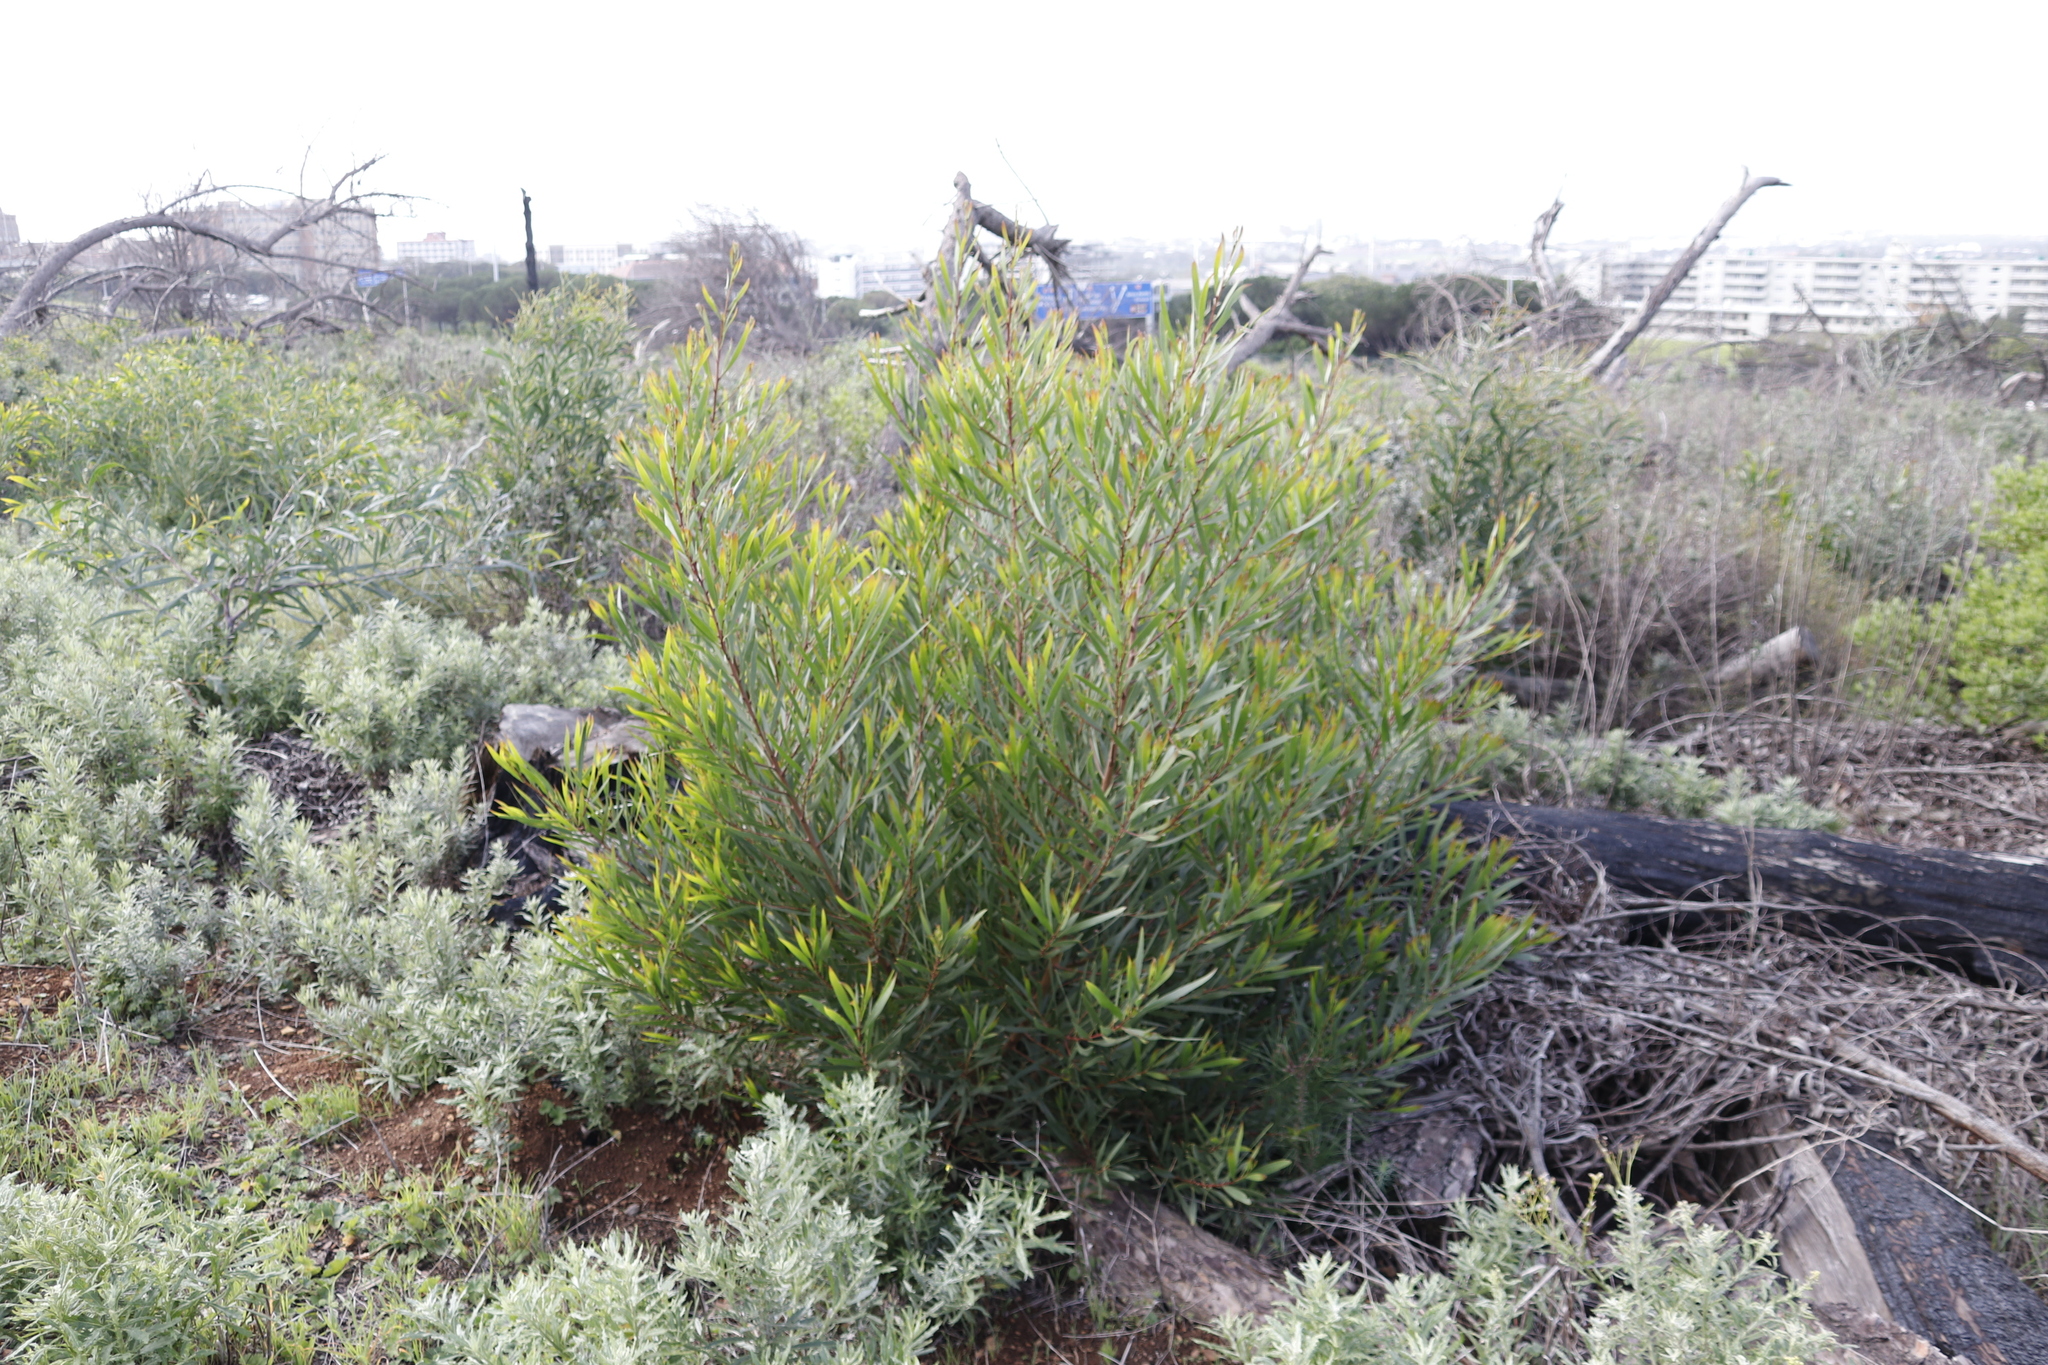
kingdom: Plantae
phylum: Tracheophyta
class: Magnoliopsida
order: Fabales
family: Fabaceae
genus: Acacia
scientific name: Acacia longifolia
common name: Sydney golden wattle
